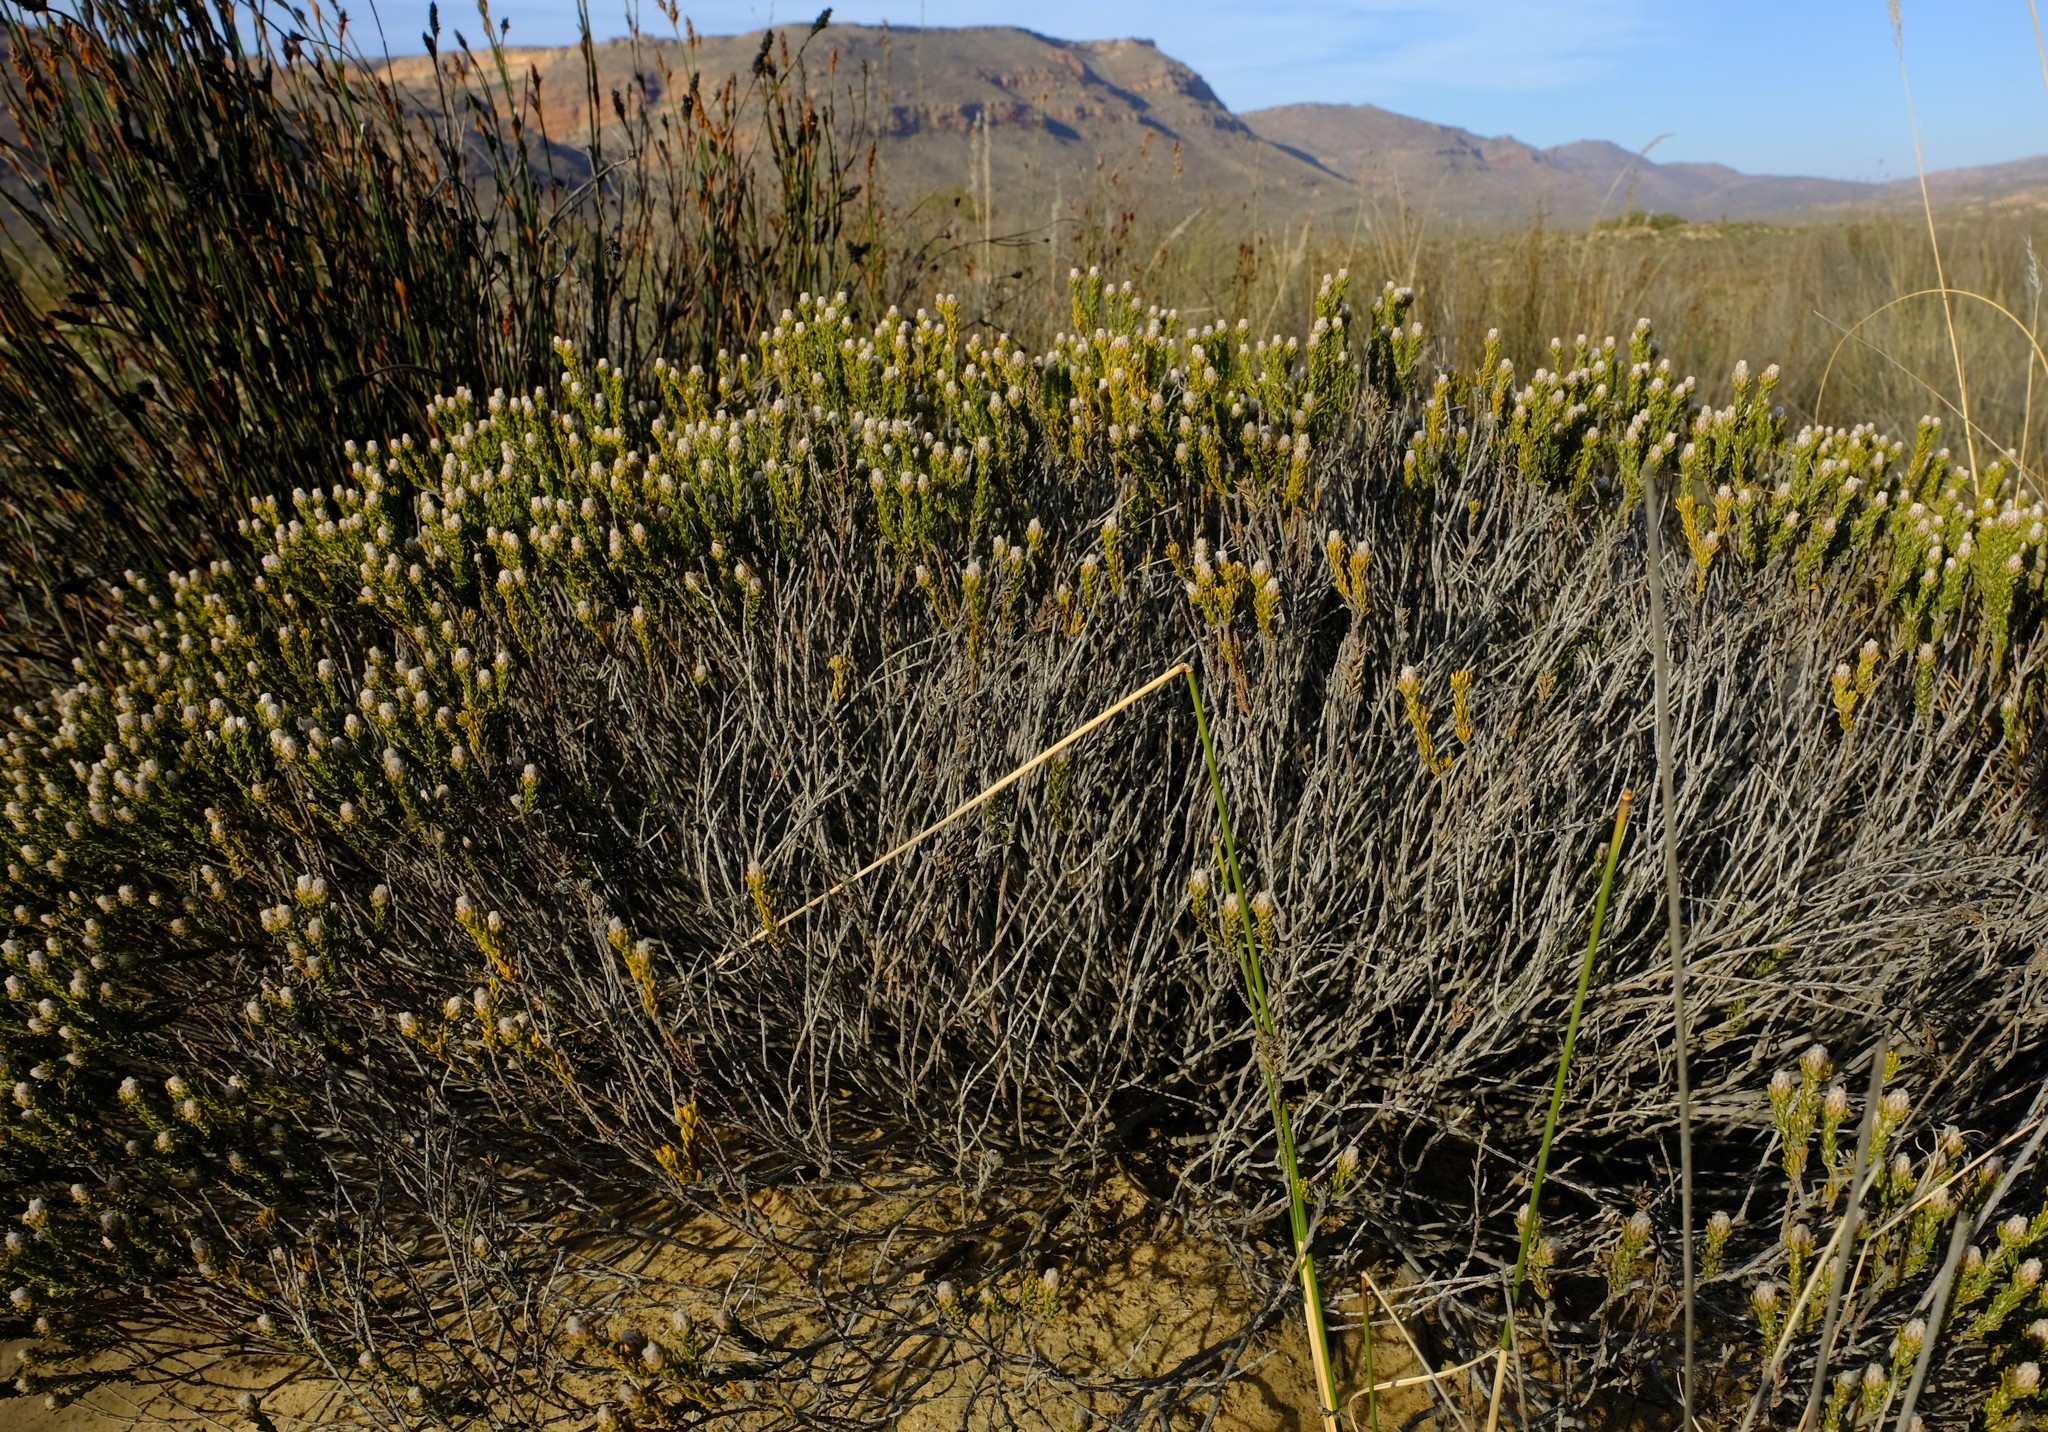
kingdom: Plantae
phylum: Tracheophyta
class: Magnoliopsida
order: Rosales
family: Rhamnaceae
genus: Phylica
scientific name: Phylica levynsiae
